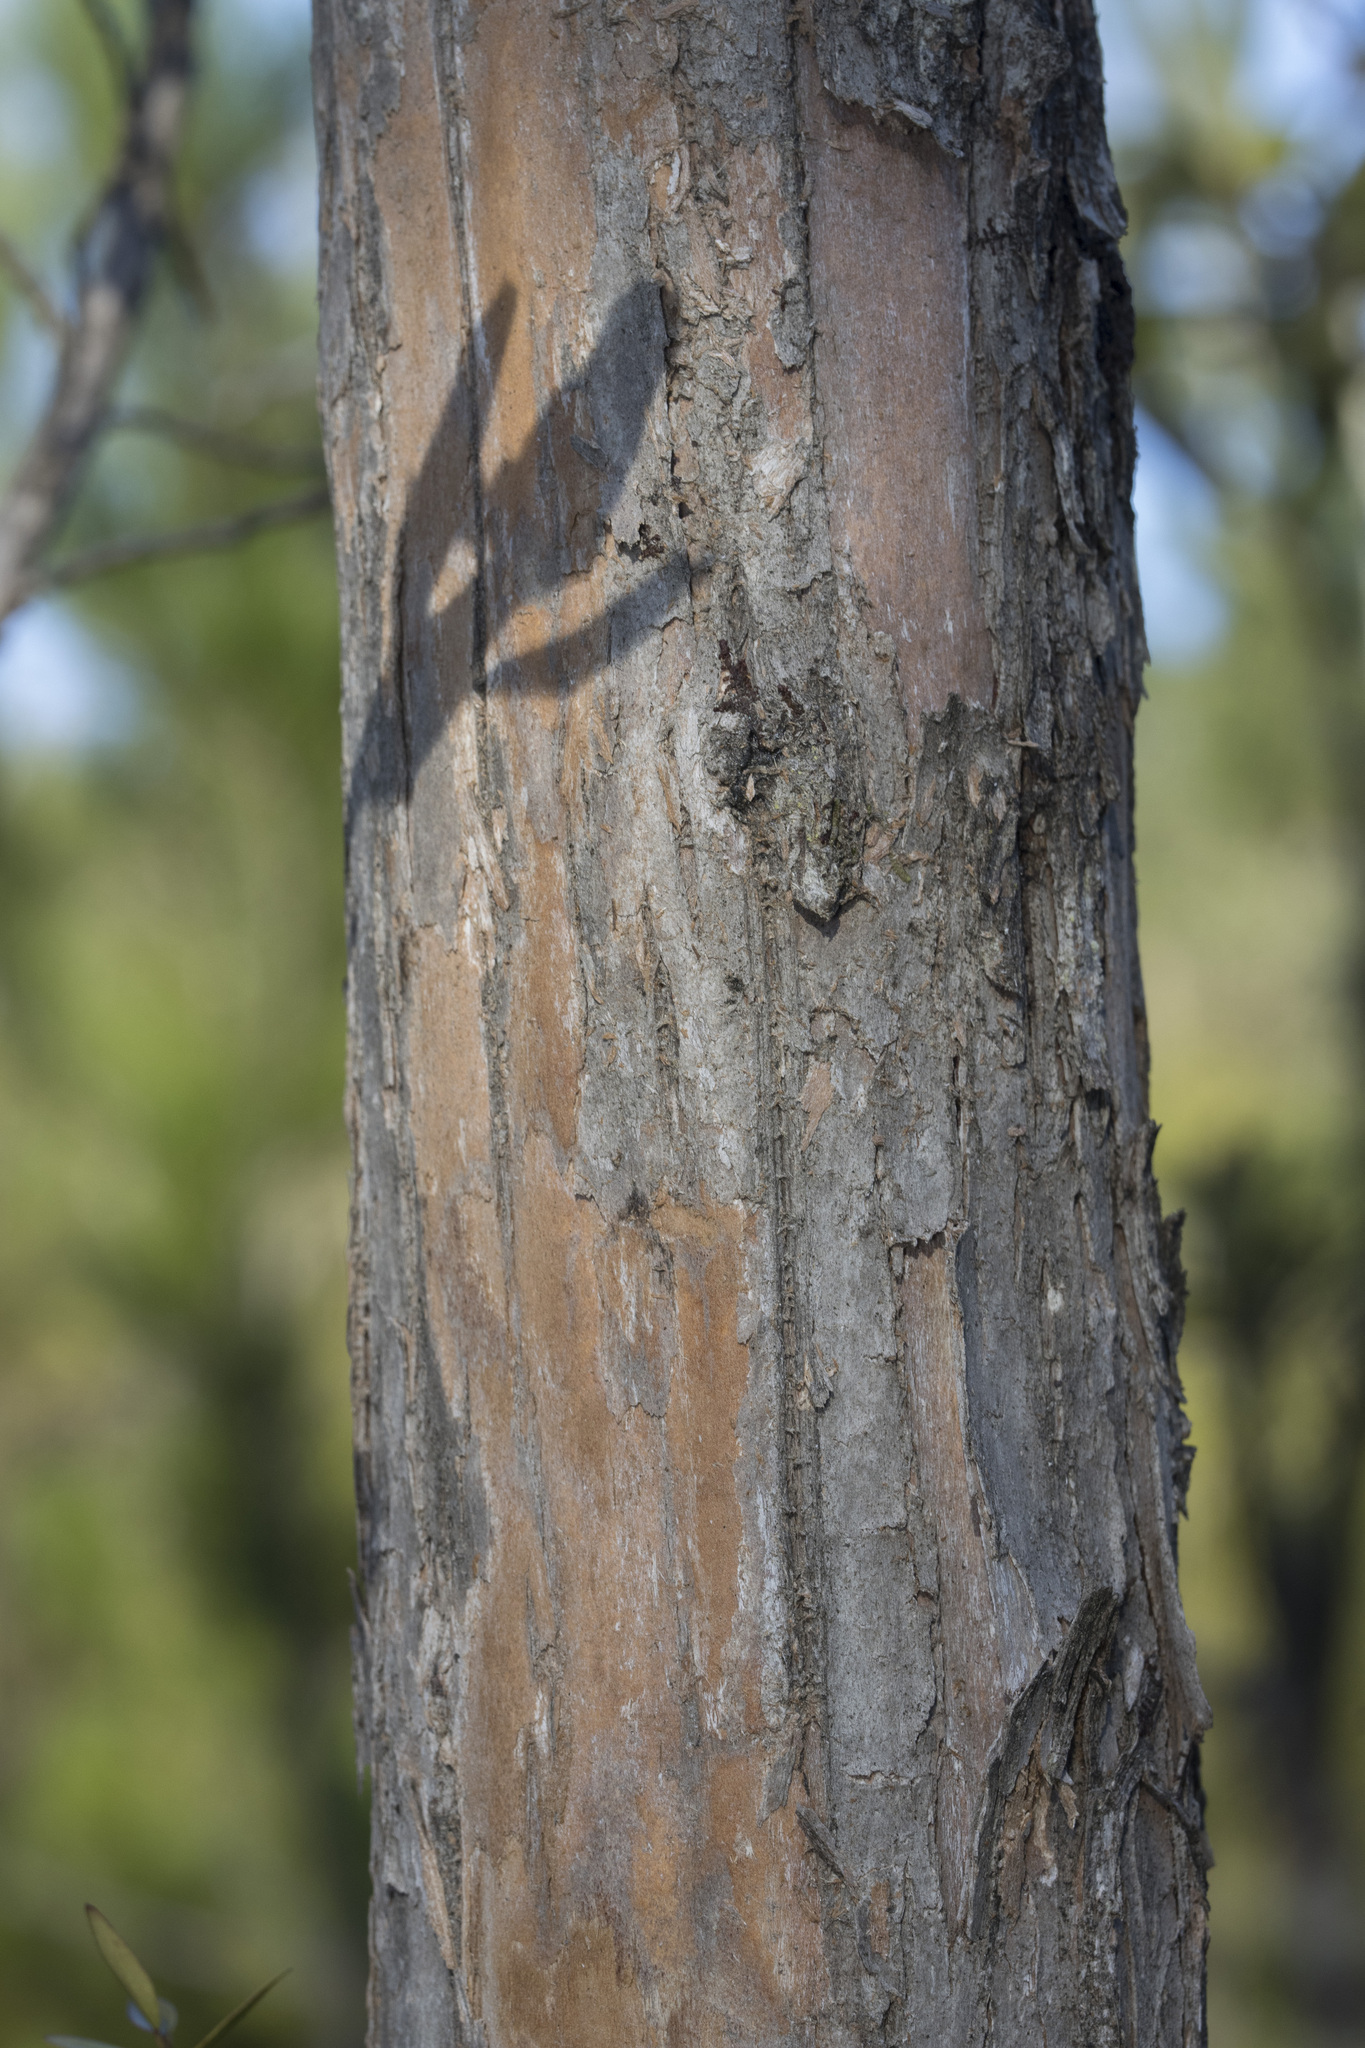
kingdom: Plantae
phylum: Tracheophyta
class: Magnoliopsida
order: Escalloniales
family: Escalloniaceae
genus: Escallonia
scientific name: Escallonia revoluta
